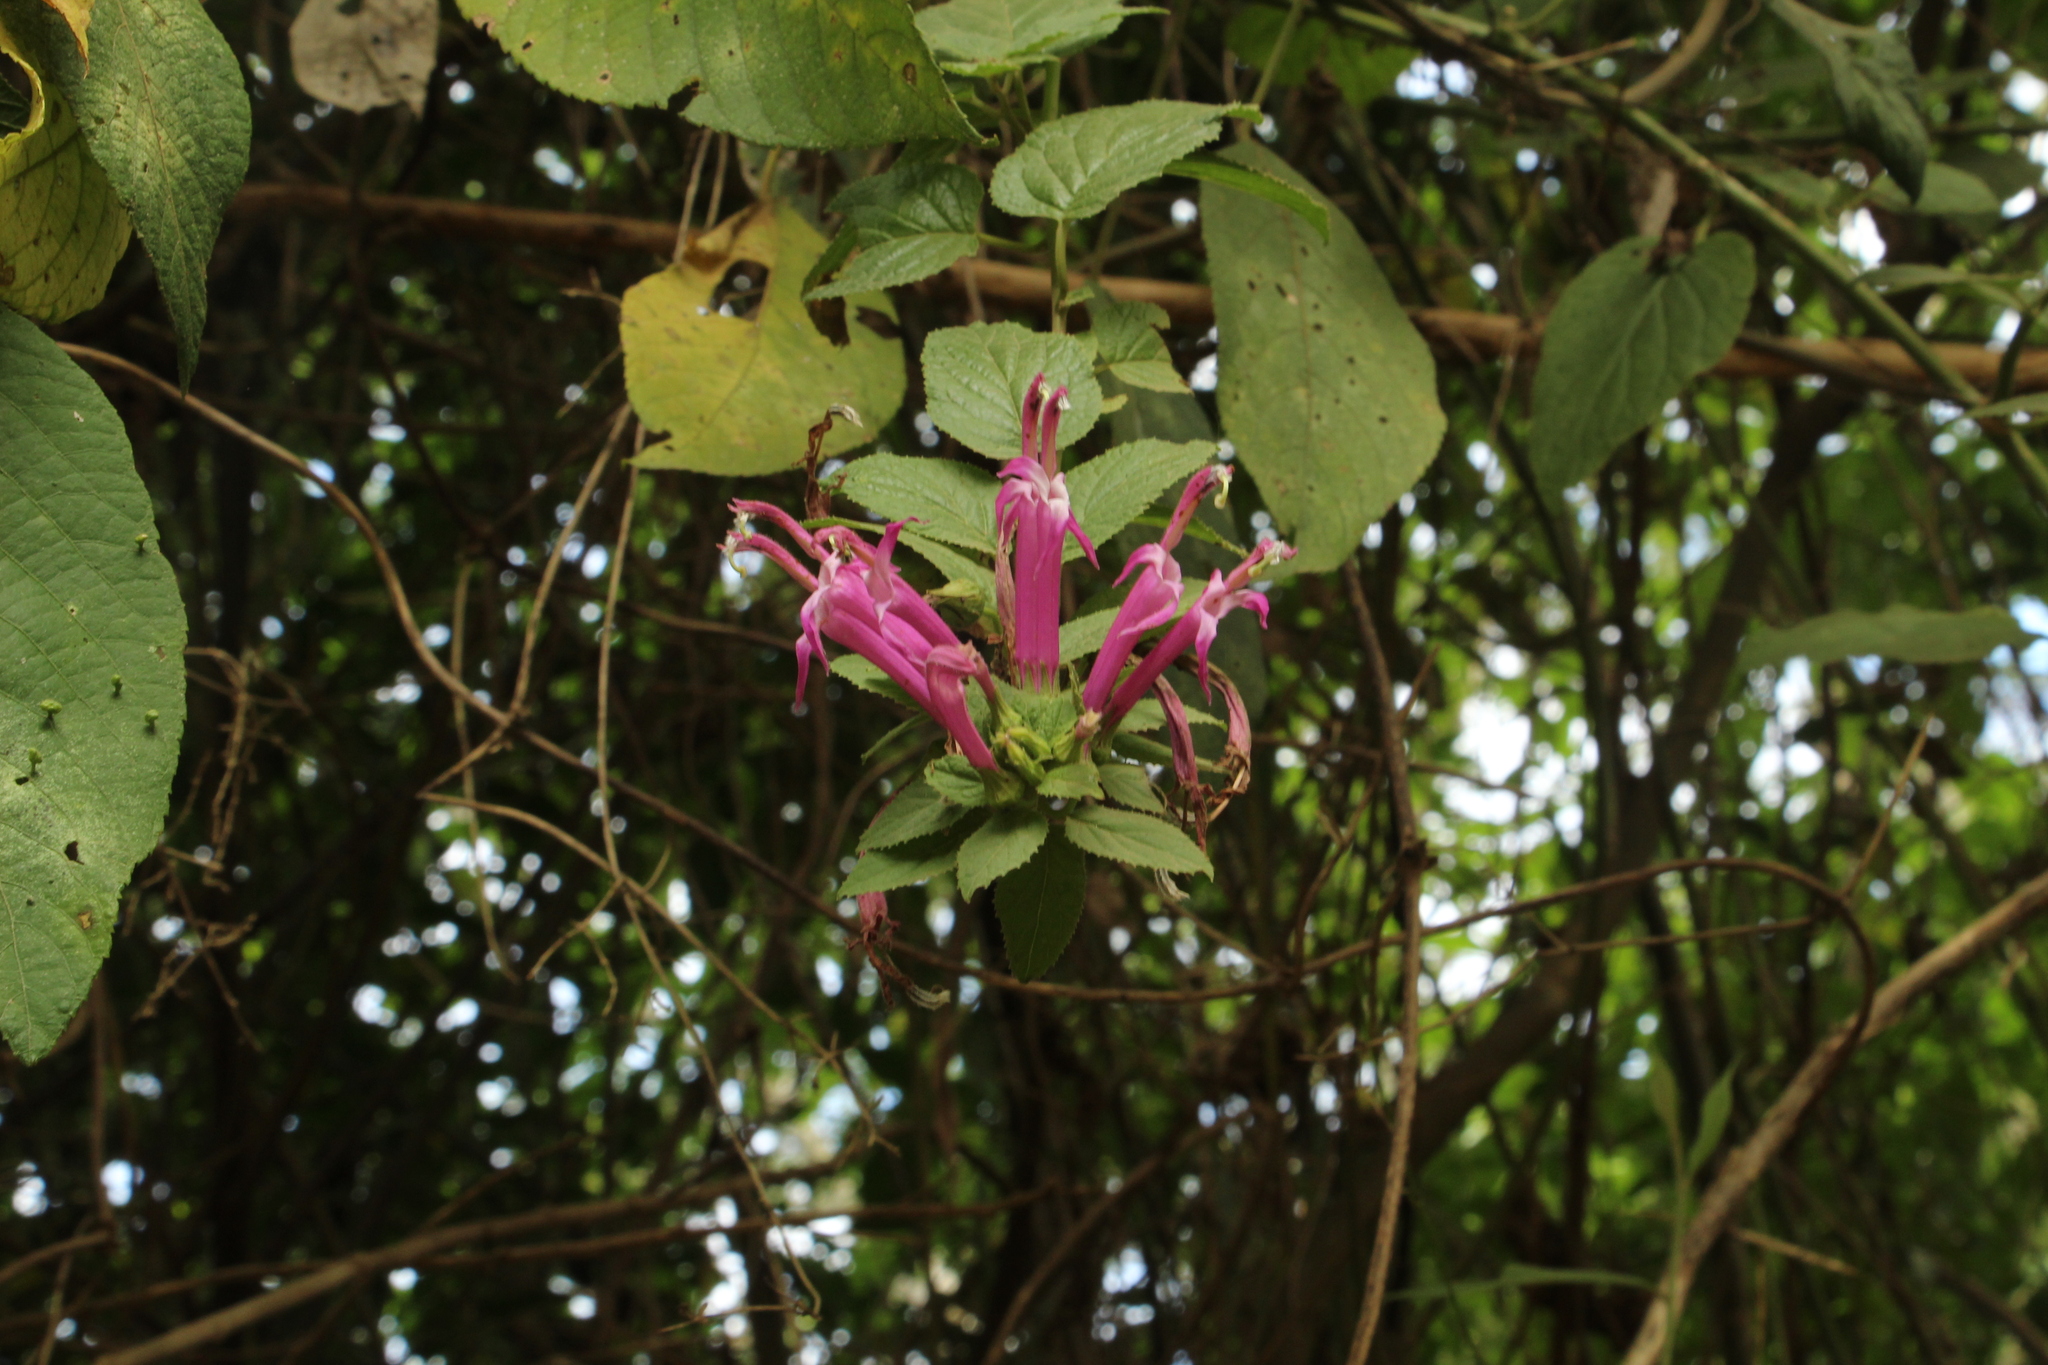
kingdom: Plantae
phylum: Tracheophyta
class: Magnoliopsida
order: Asterales
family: Campanulaceae
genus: Siphocampylus
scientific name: Siphocampylus denticulosus
